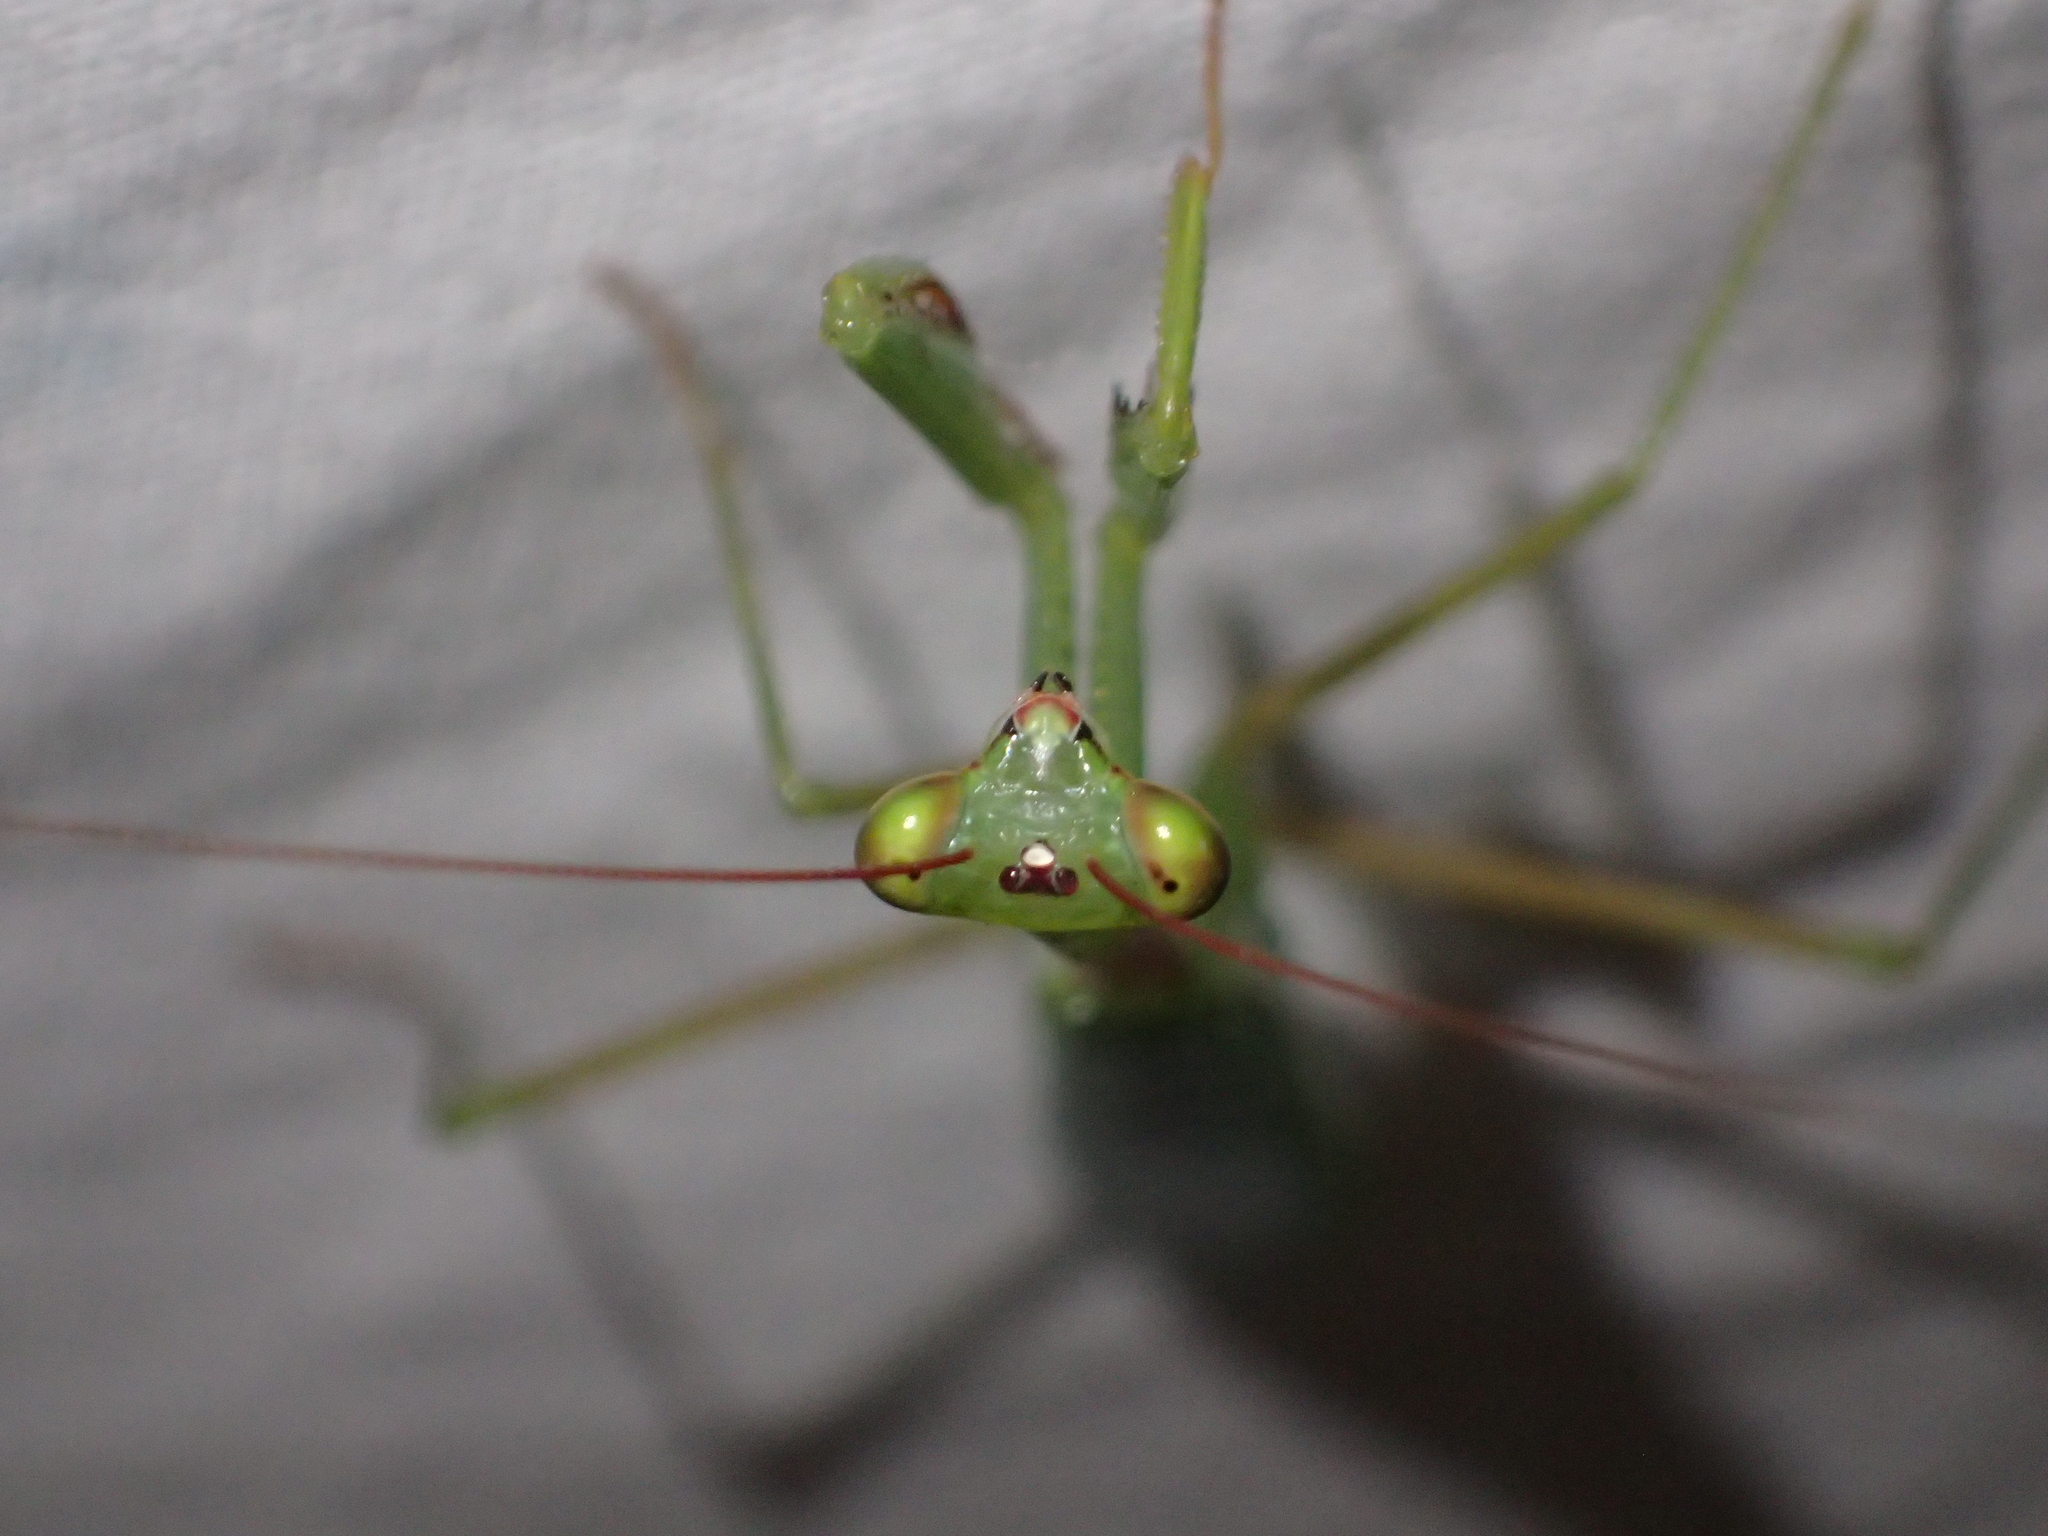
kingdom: Animalia
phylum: Arthropoda
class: Insecta
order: Mantodea
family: Miomantidae
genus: Miomantis
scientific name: Miomantis caffra
